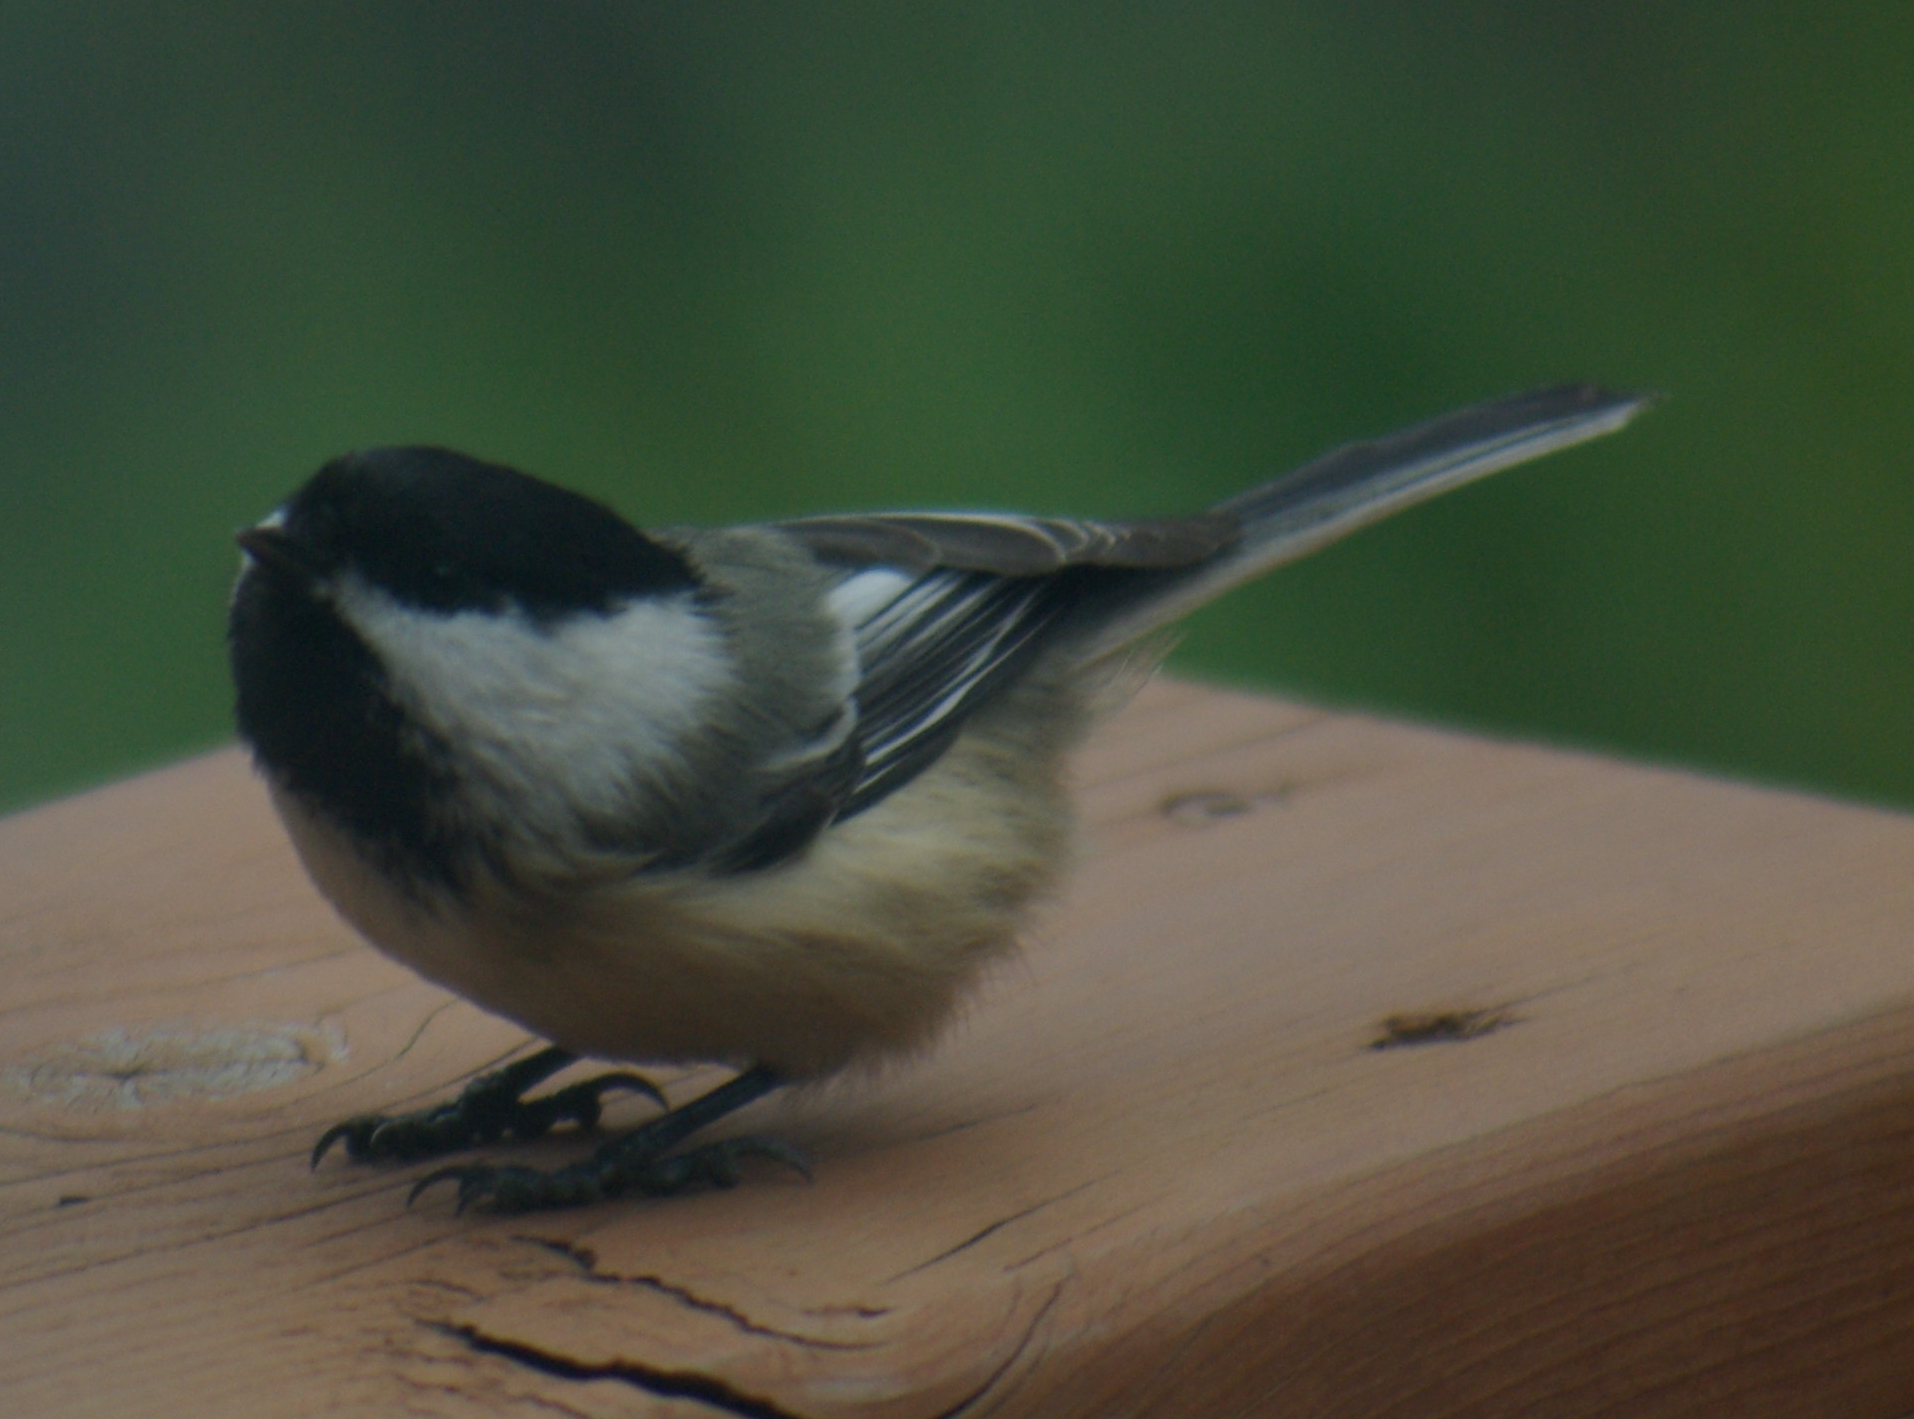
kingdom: Animalia
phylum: Chordata
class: Aves
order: Passeriformes
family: Paridae
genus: Poecile
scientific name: Poecile atricapillus
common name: Black-capped chickadee
